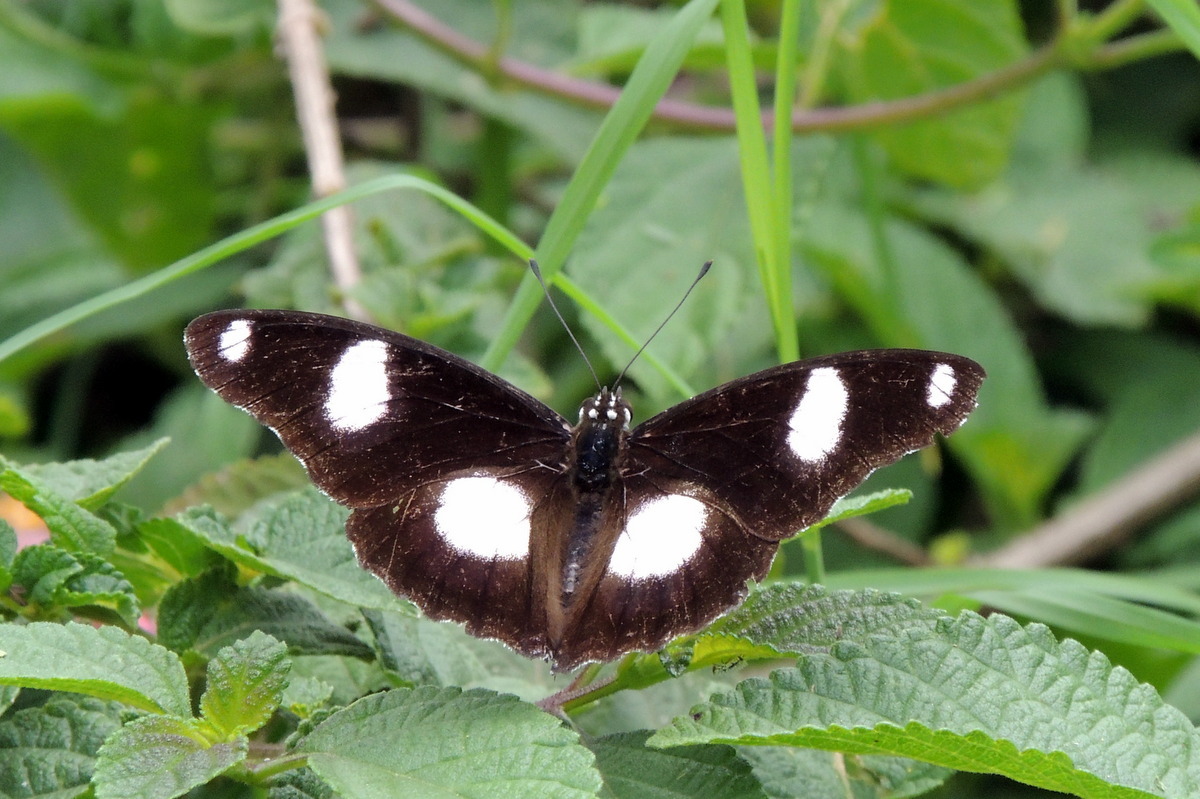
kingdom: Animalia
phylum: Arthropoda
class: Insecta
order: Lepidoptera
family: Nymphalidae
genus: Hypolimnas
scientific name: Hypolimnas misippus
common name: False plain tiger
